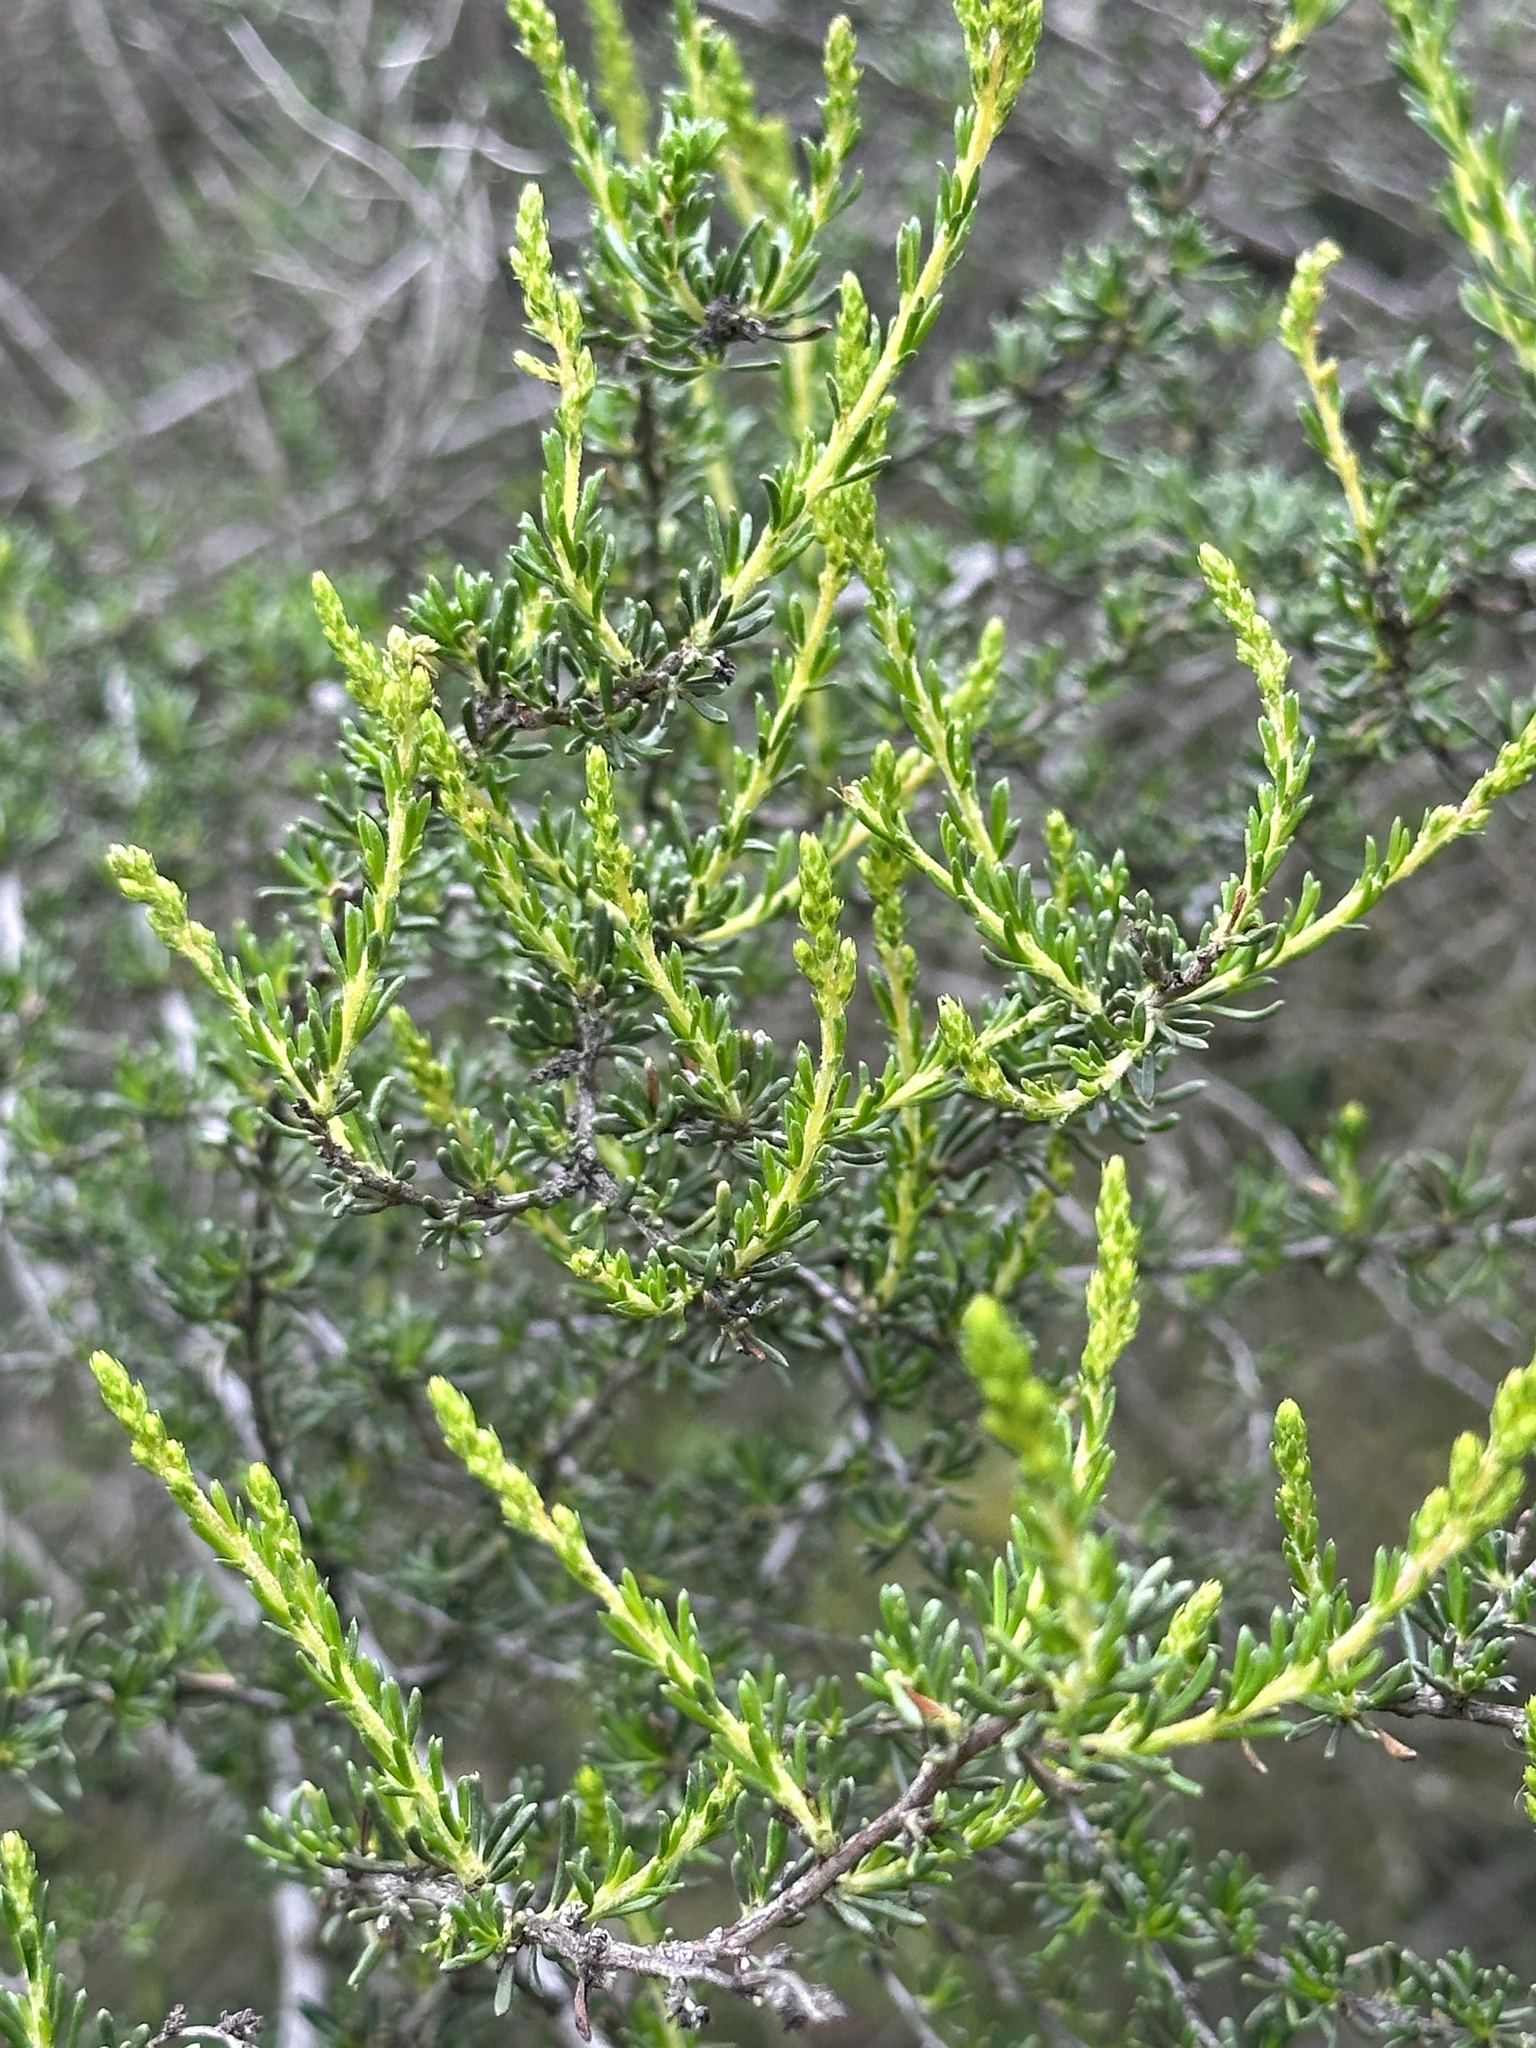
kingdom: Plantae
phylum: Tracheophyta
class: Magnoliopsida
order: Rosales
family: Rosaceae
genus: Adenostoma
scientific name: Adenostoma fasciculatum
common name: Chamise
